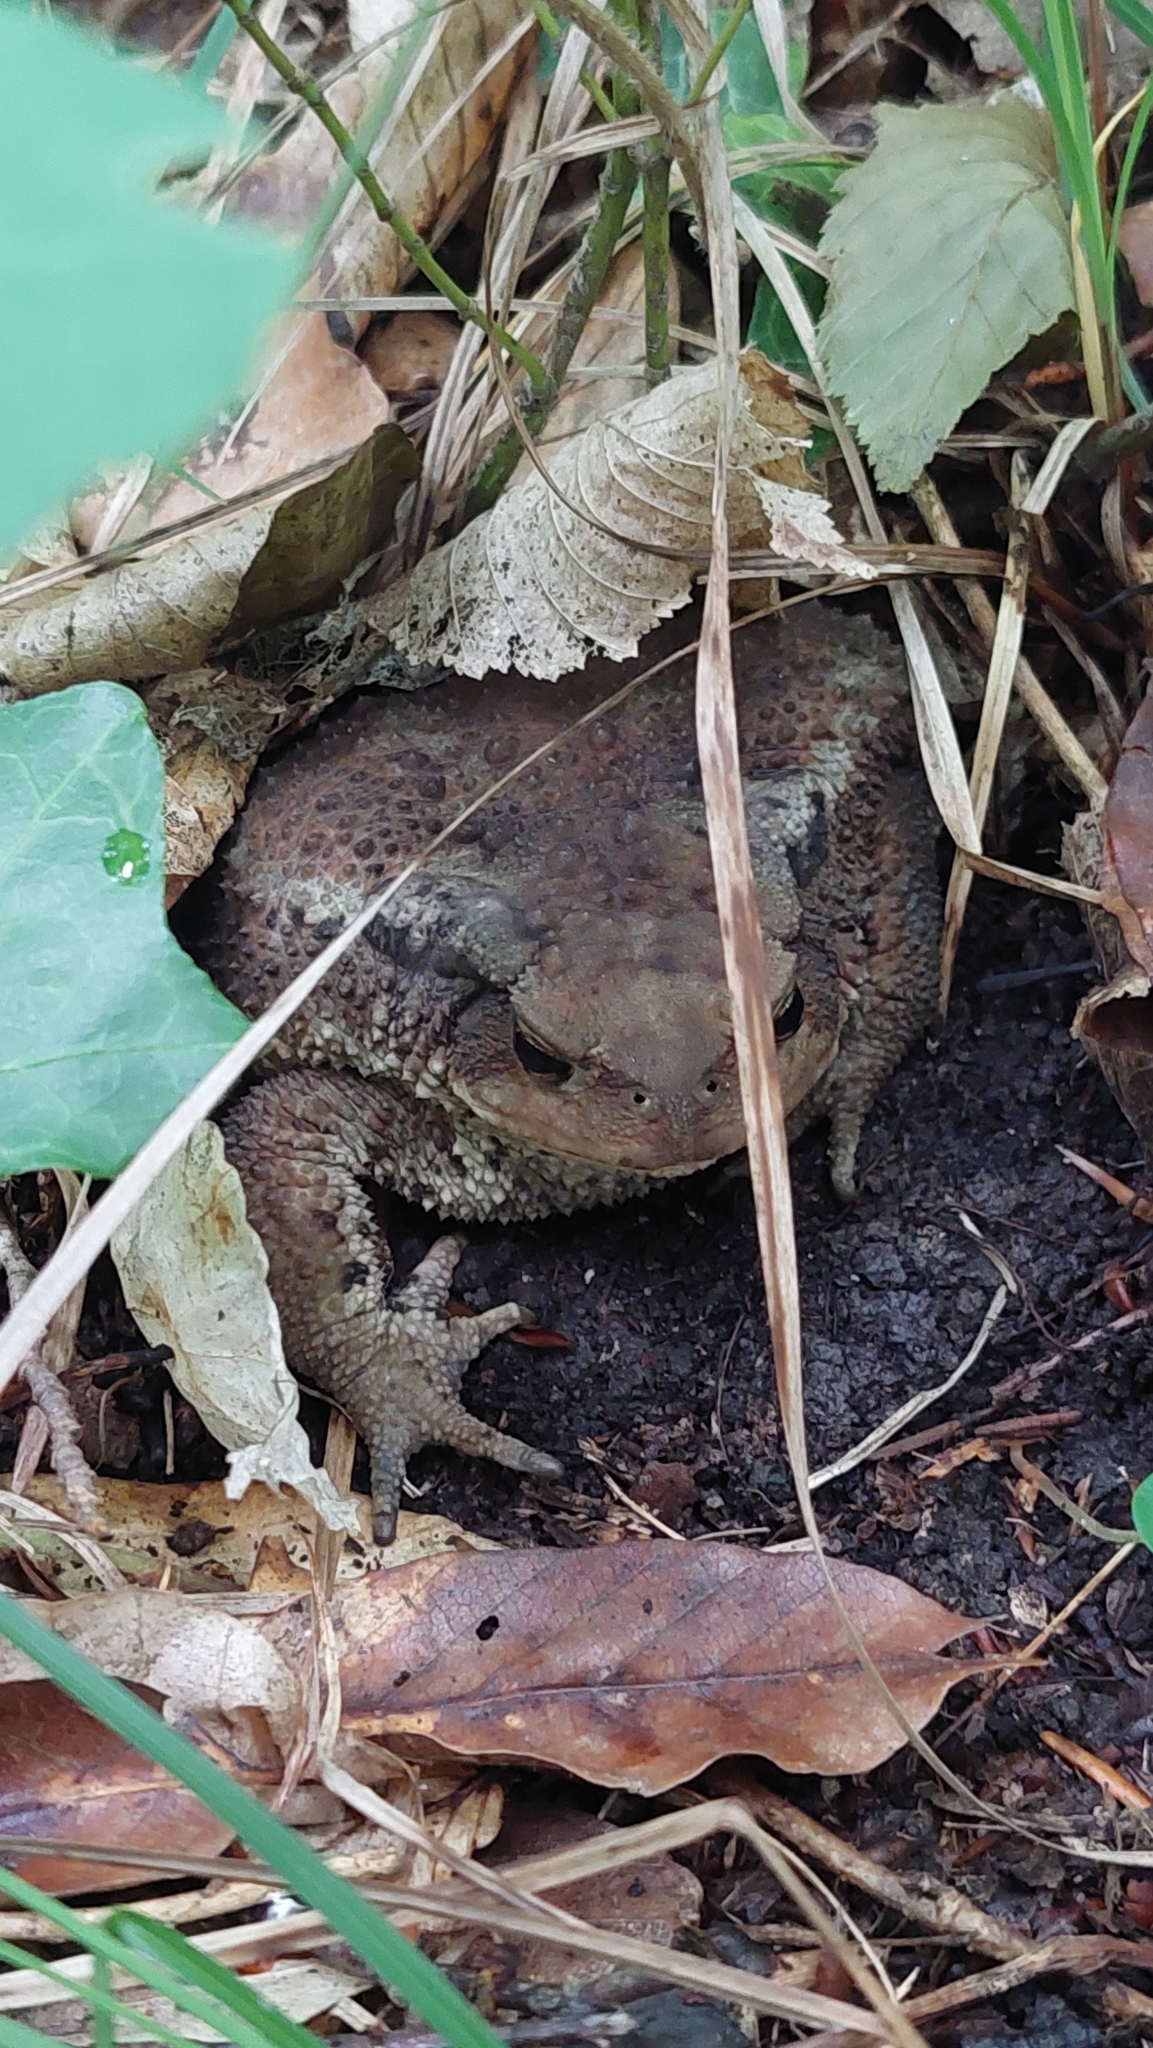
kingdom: Animalia
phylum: Chordata
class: Amphibia
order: Anura
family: Bufonidae
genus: Bufo
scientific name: Bufo verrucosissimus
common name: Caucasian toad
